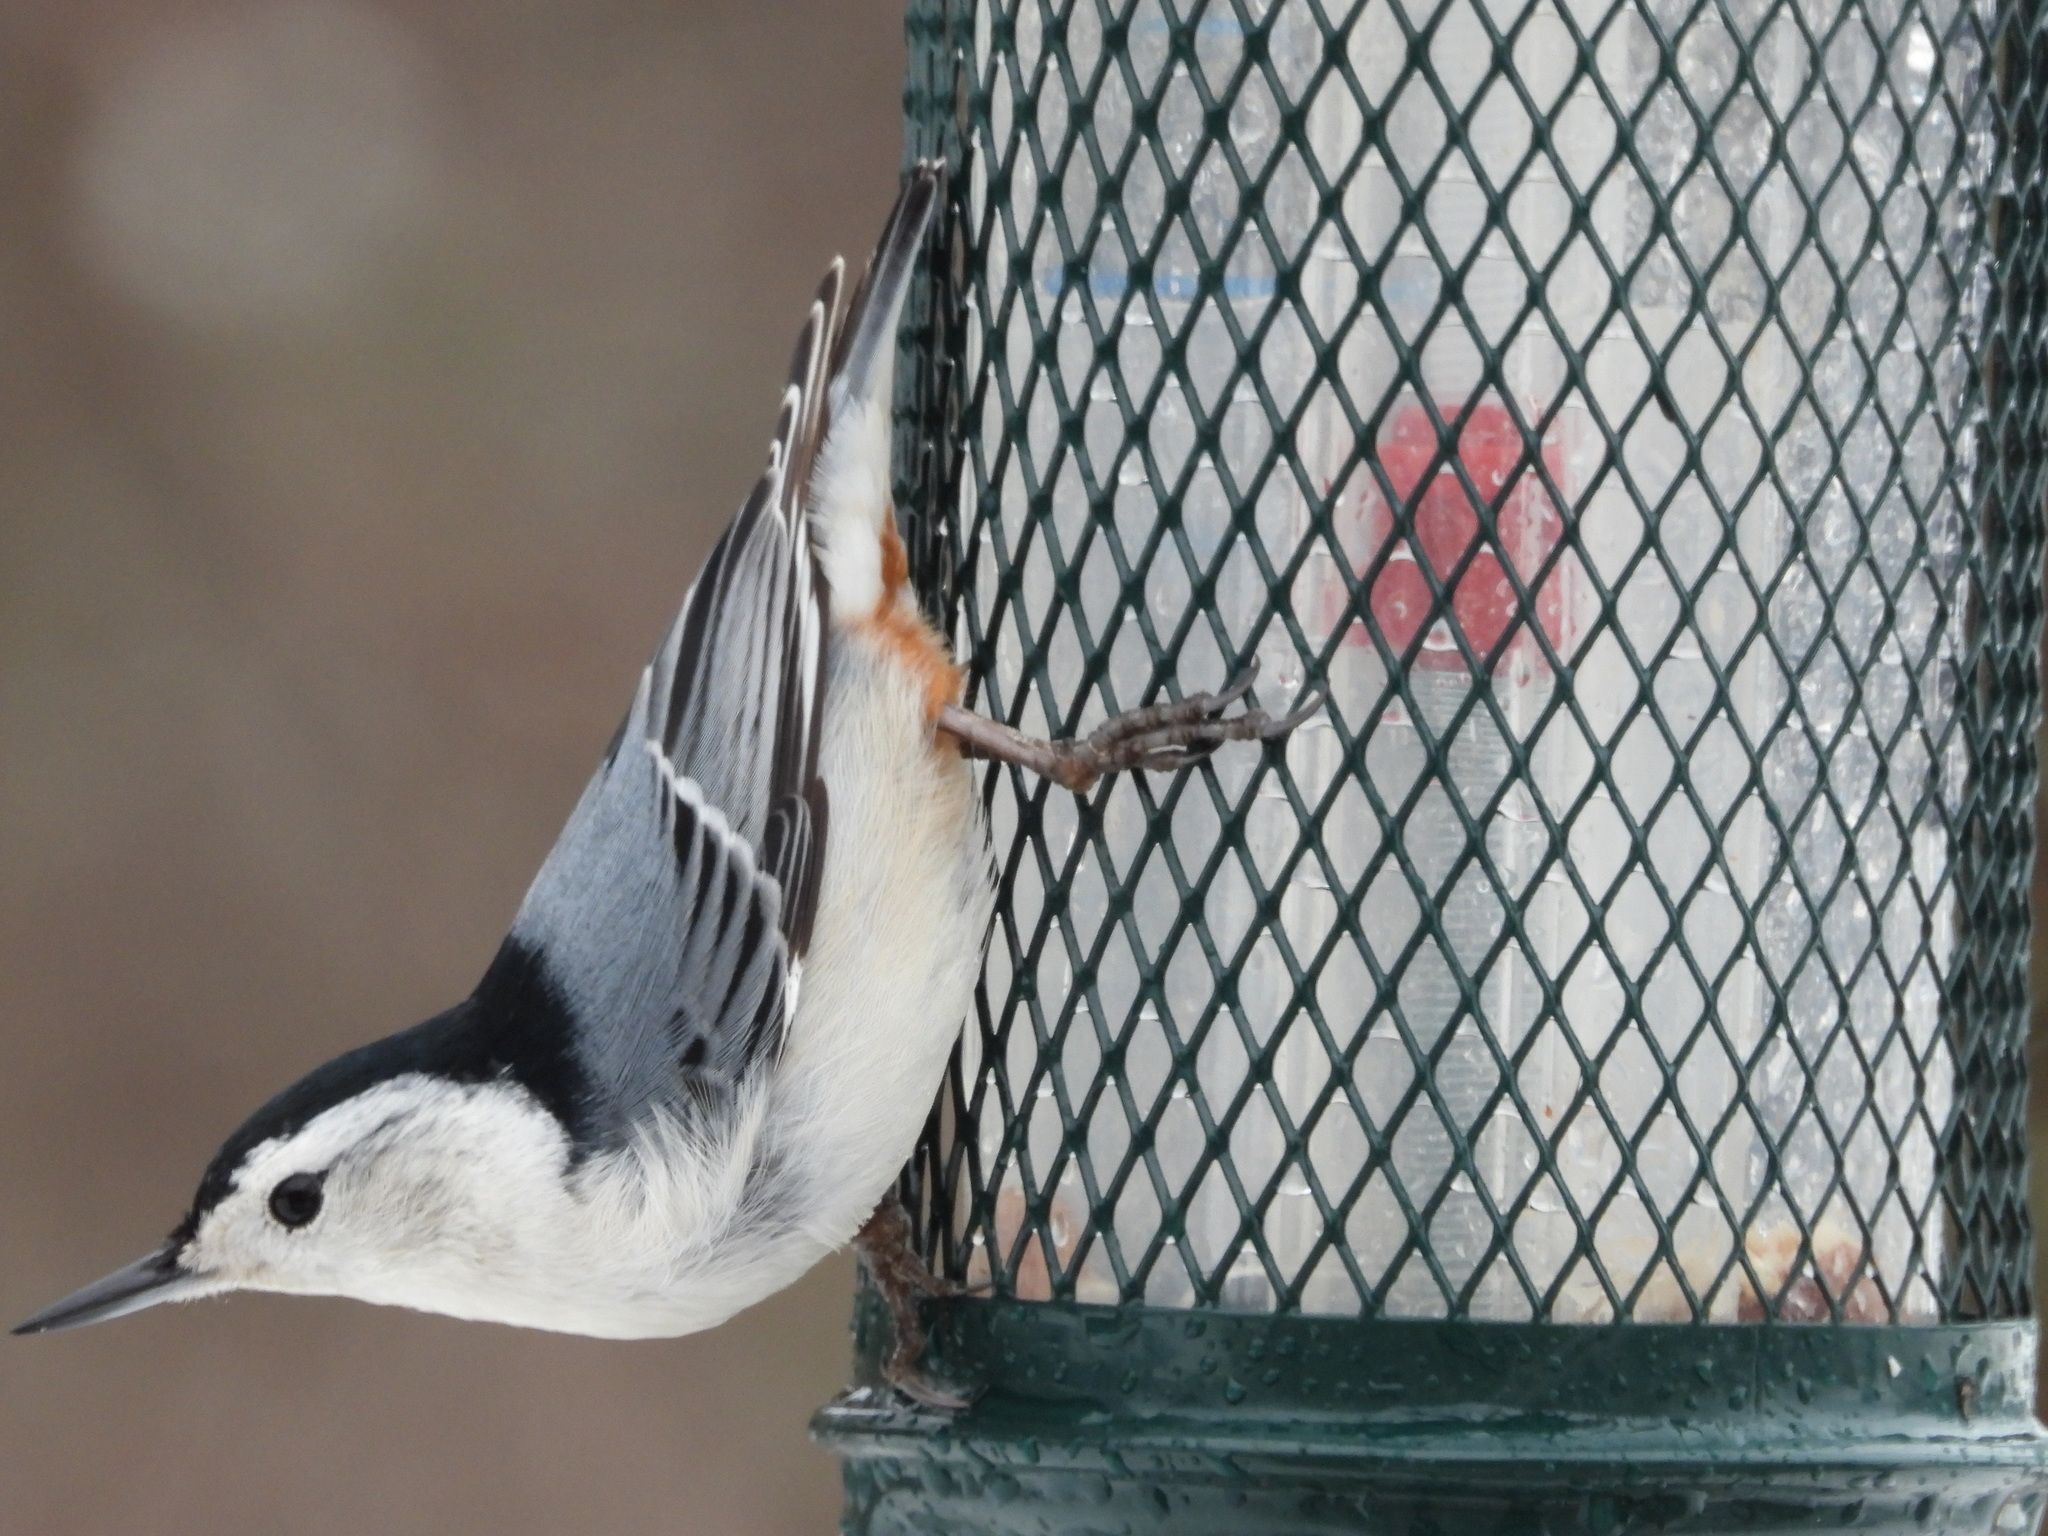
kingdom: Animalia
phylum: Chordata
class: Aves
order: Passeriformes
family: Sittidae
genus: Sitta
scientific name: Sitta carolinensis
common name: White-breasted nuthatch
